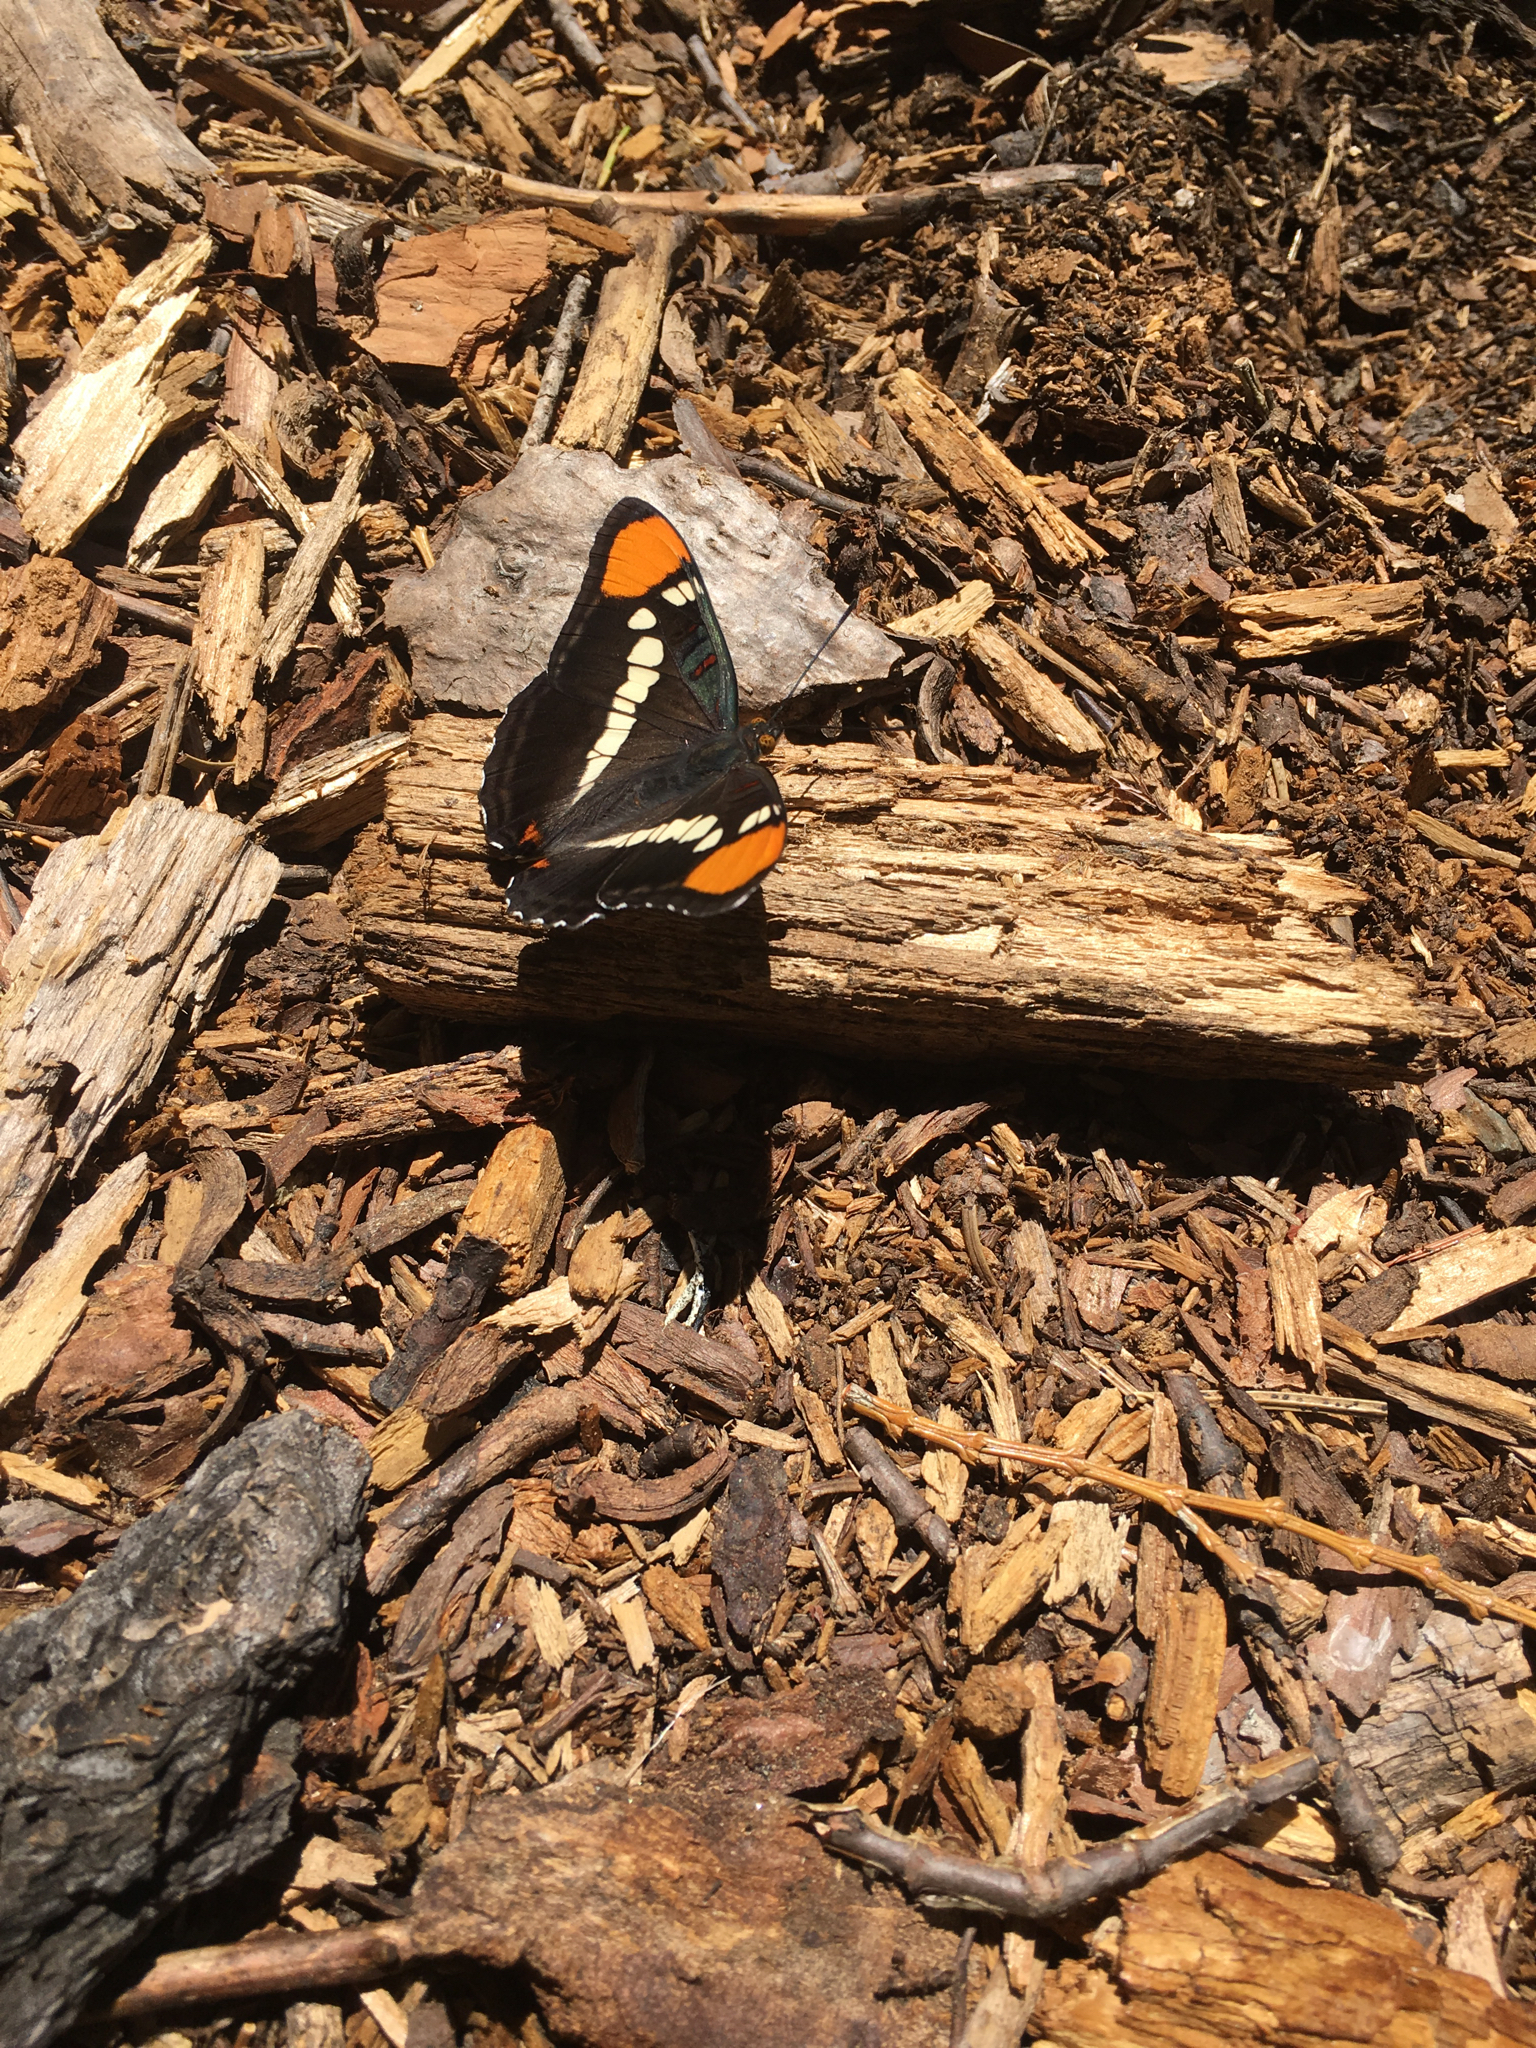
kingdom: Animalia
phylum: Arthropoda
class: Insecta
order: Lepidoptera
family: Nymphalidae
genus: Limenitis
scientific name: Limenitis bredowii
